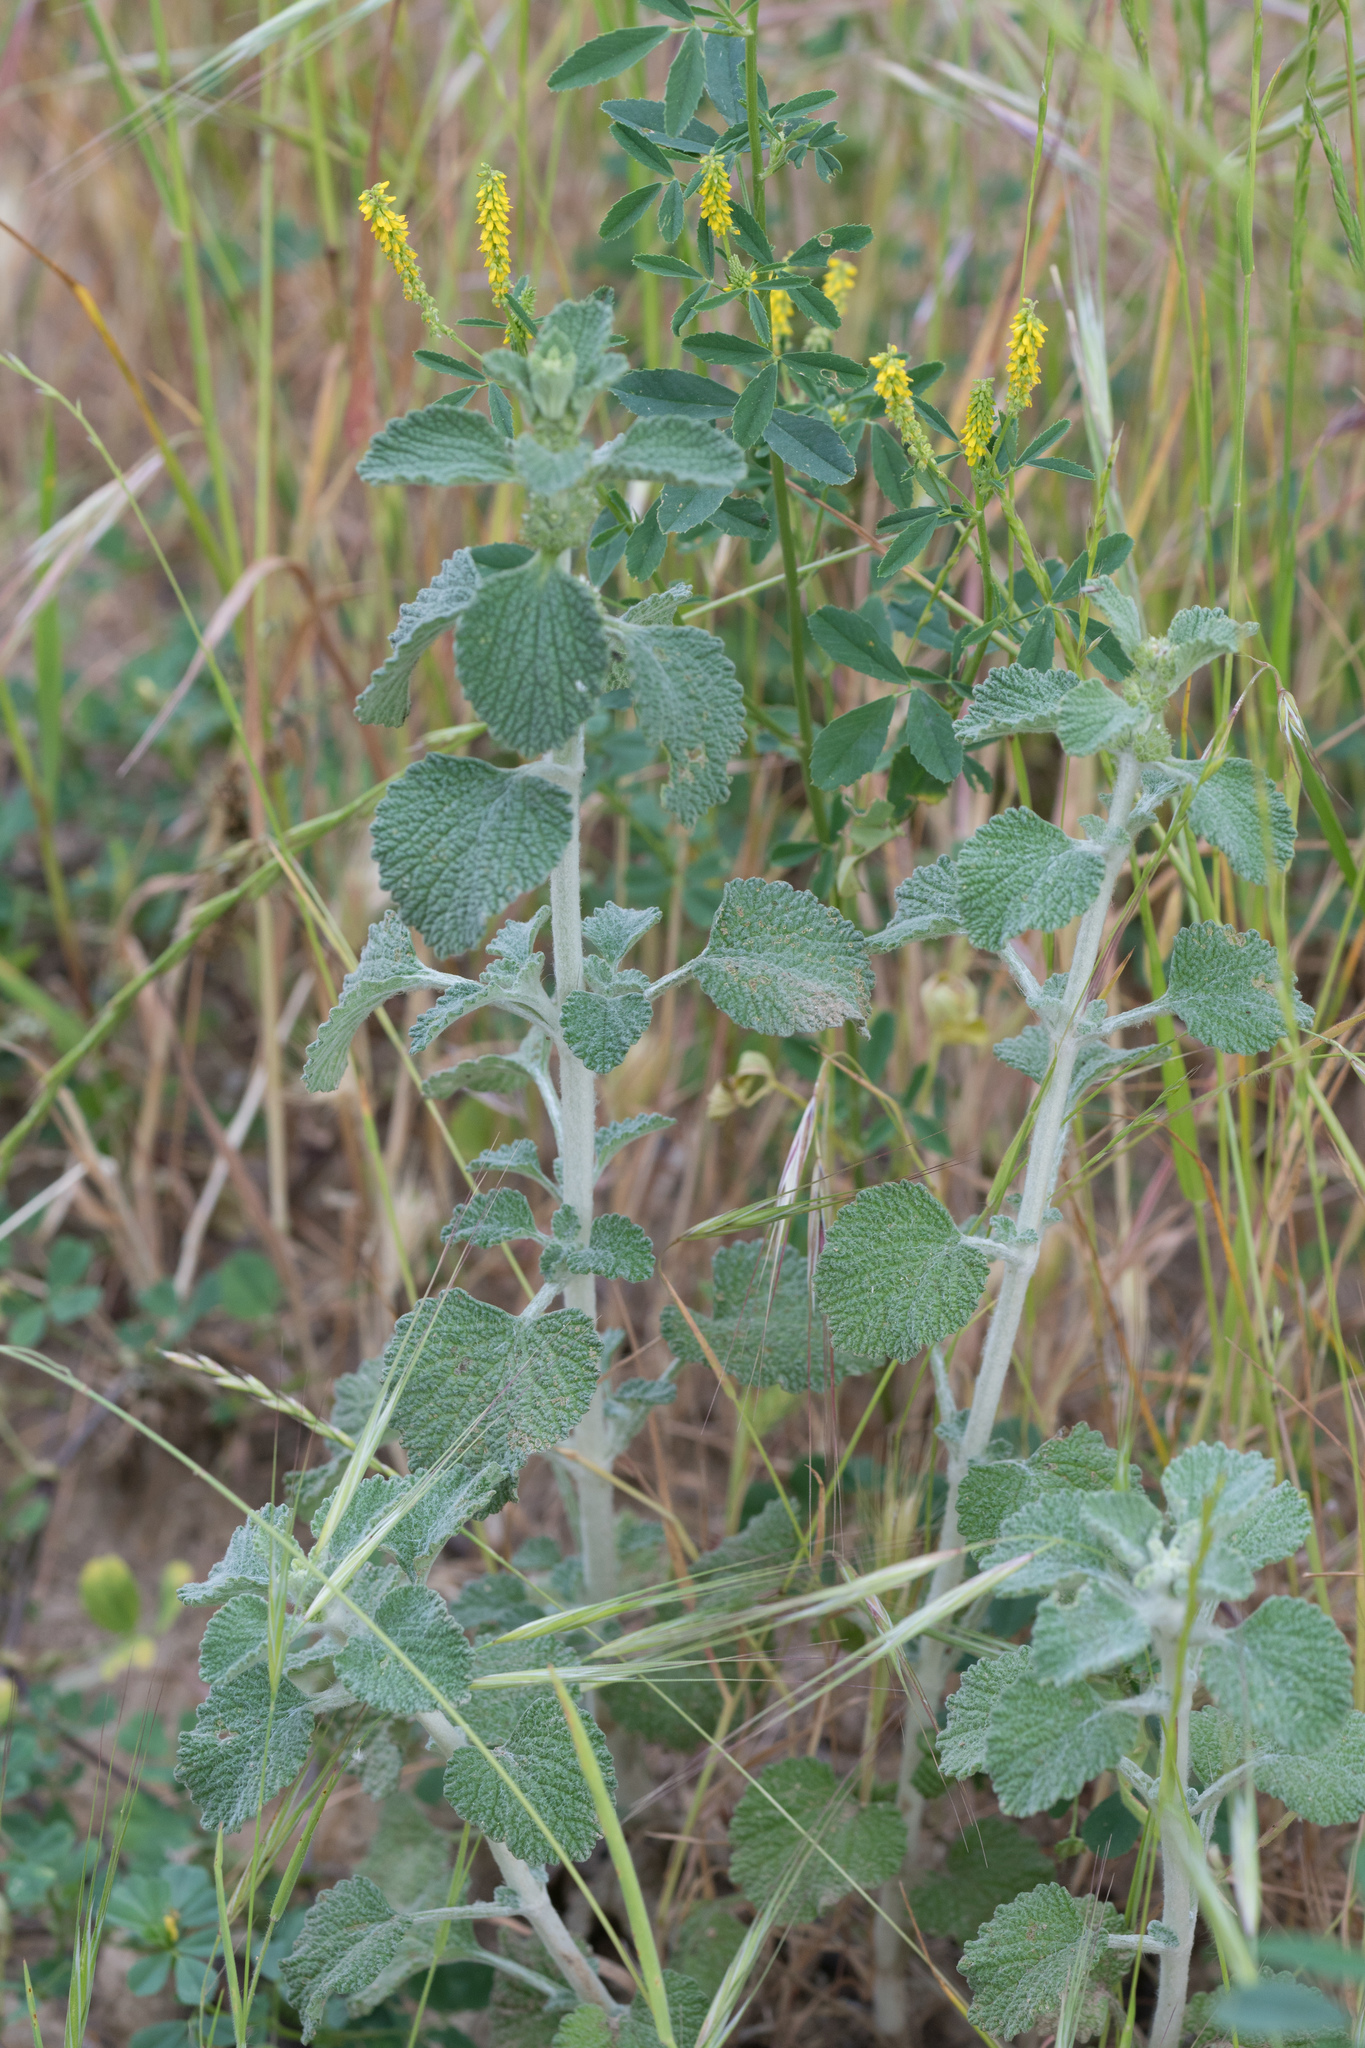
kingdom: Plantae
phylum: Tracheophyta
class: Magnoliopsida
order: Lamiales
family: Lamiaceae
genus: Marrubium
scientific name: Marrubium vulgare
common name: Horehound
